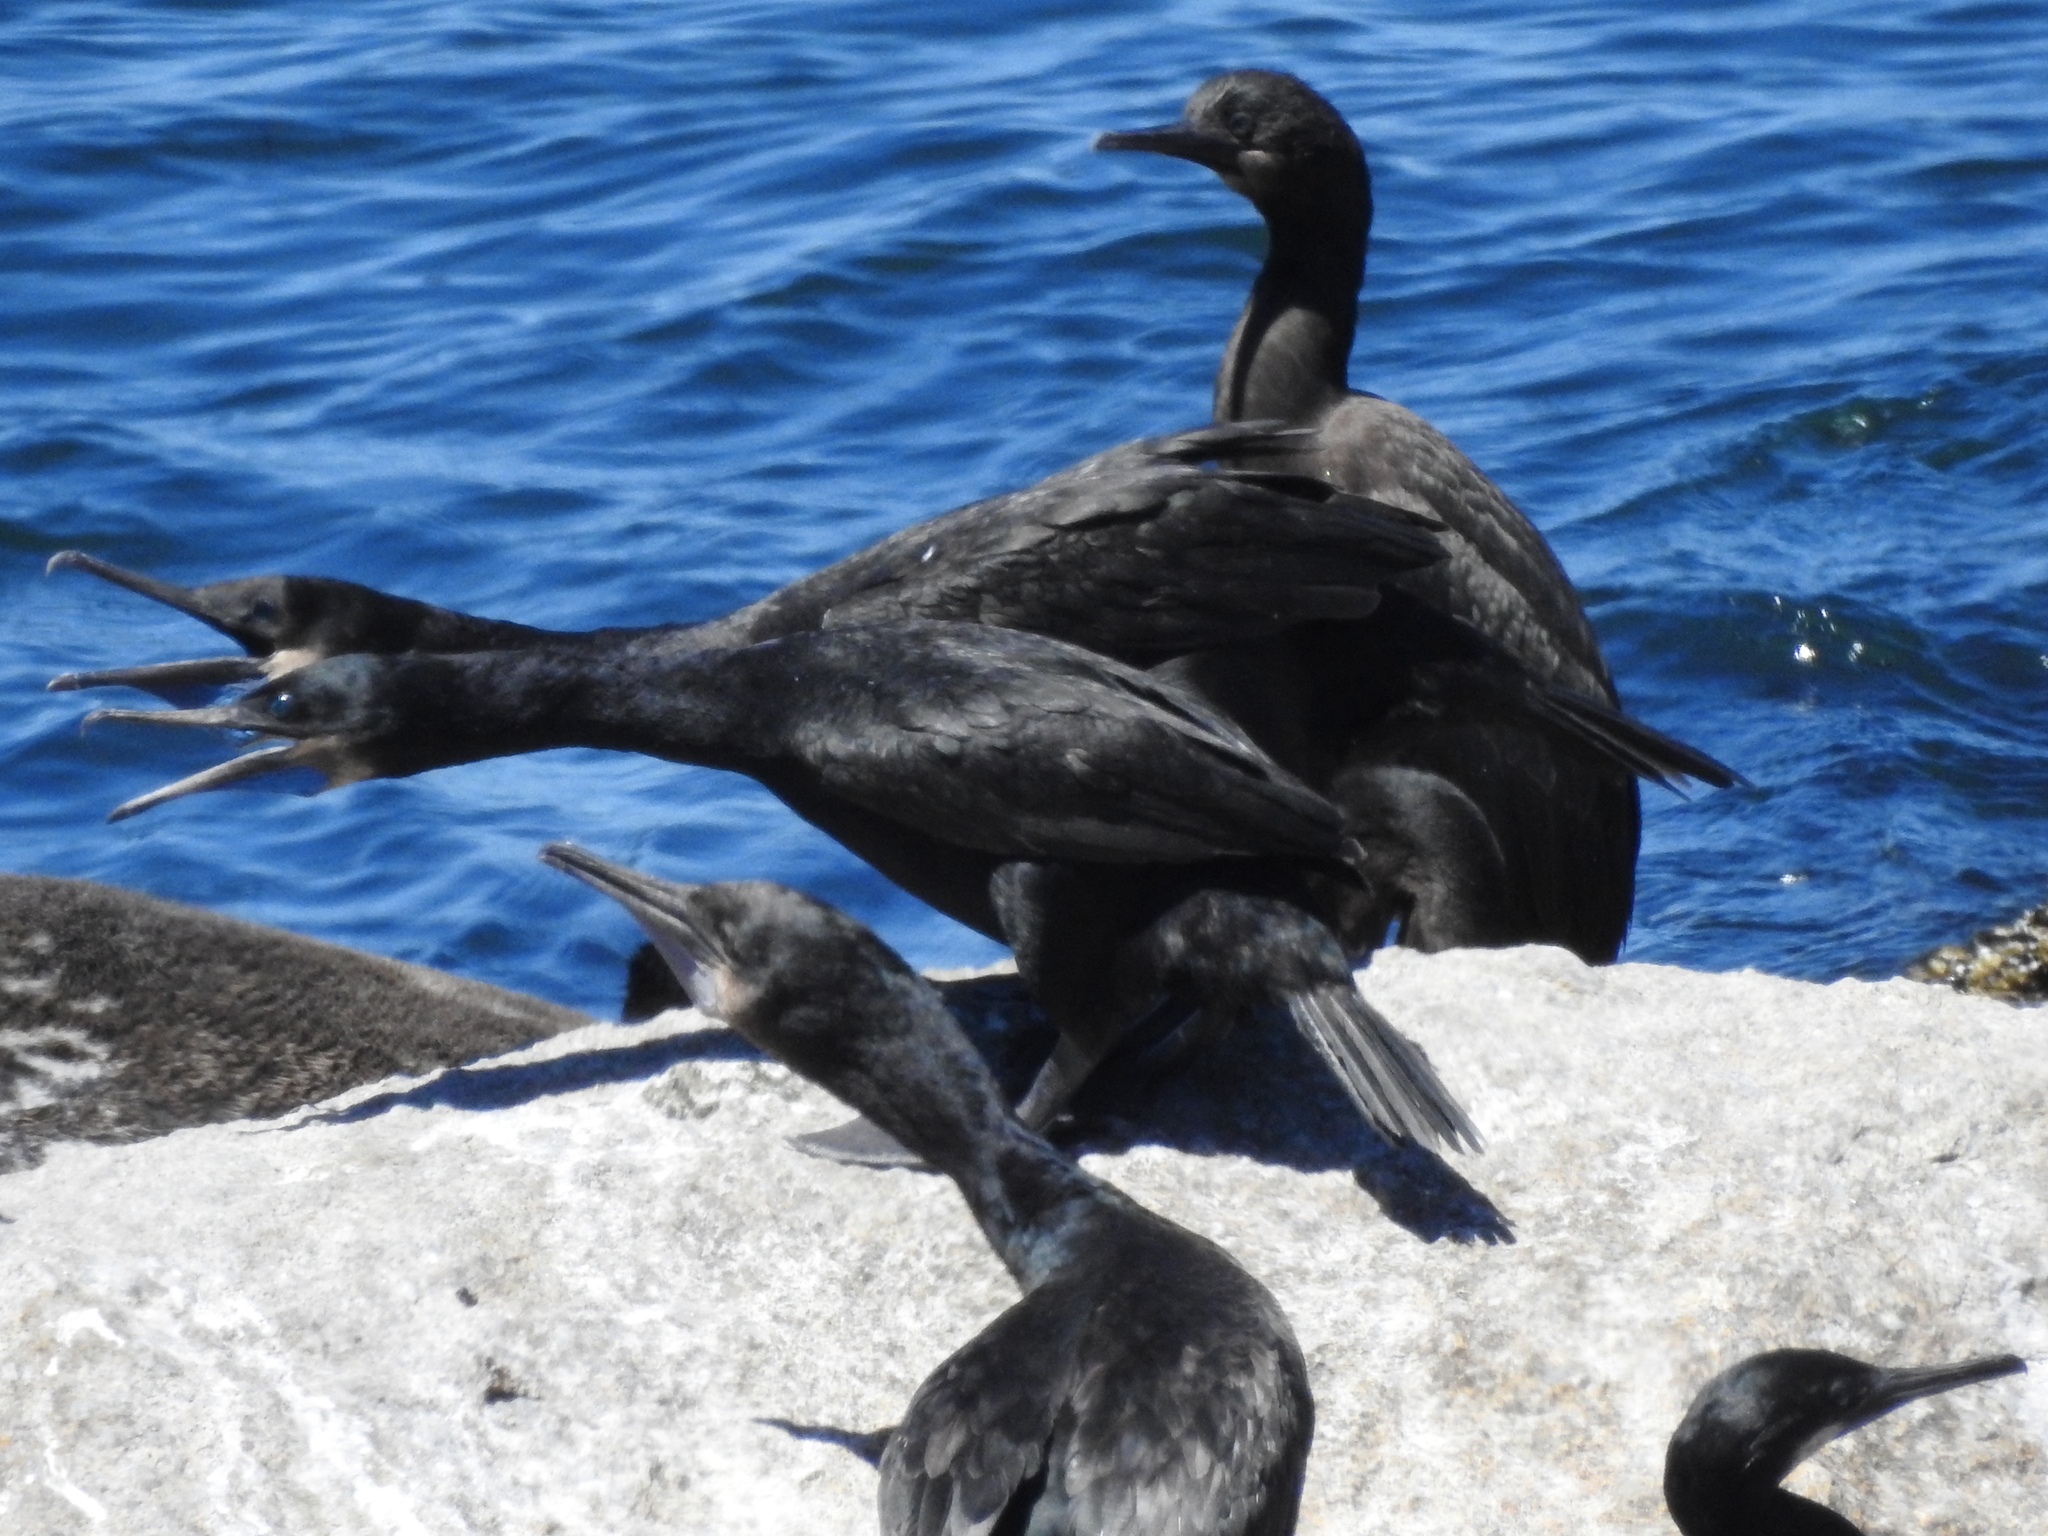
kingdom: Animalia
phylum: Chordata
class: Aves
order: Suliformes
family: Phalacrocoracidae
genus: Urile
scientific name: Urile penicillatus
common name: Brandt's cormorant
